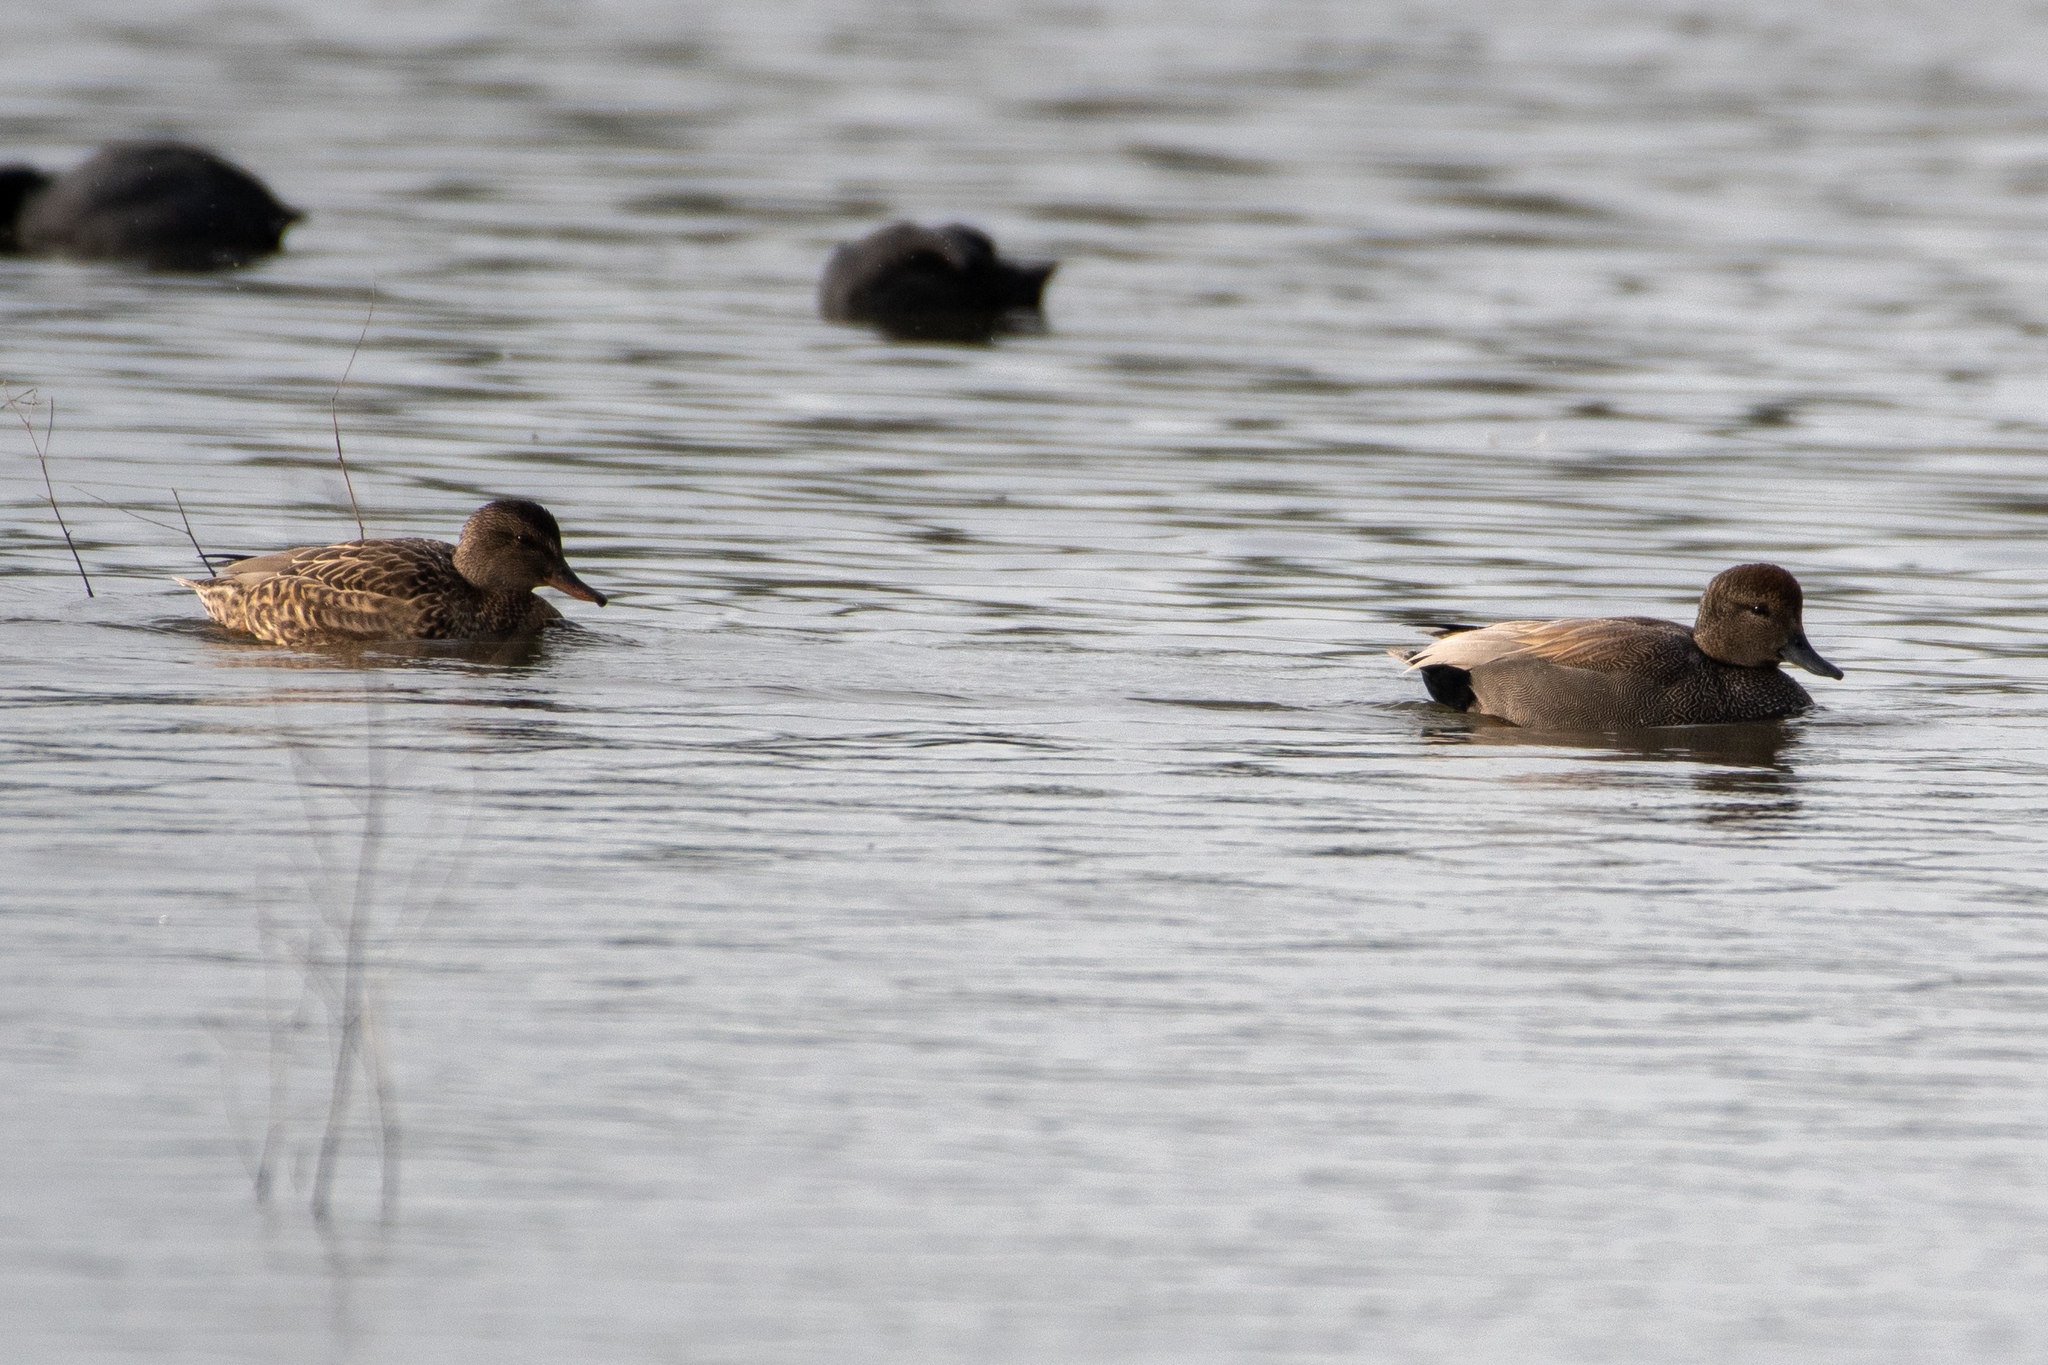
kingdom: Animalia
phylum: Chordata
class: Aves
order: Anseriformes
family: Anatidae
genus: Mareca
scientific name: Mareca strepera
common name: Gadwall
